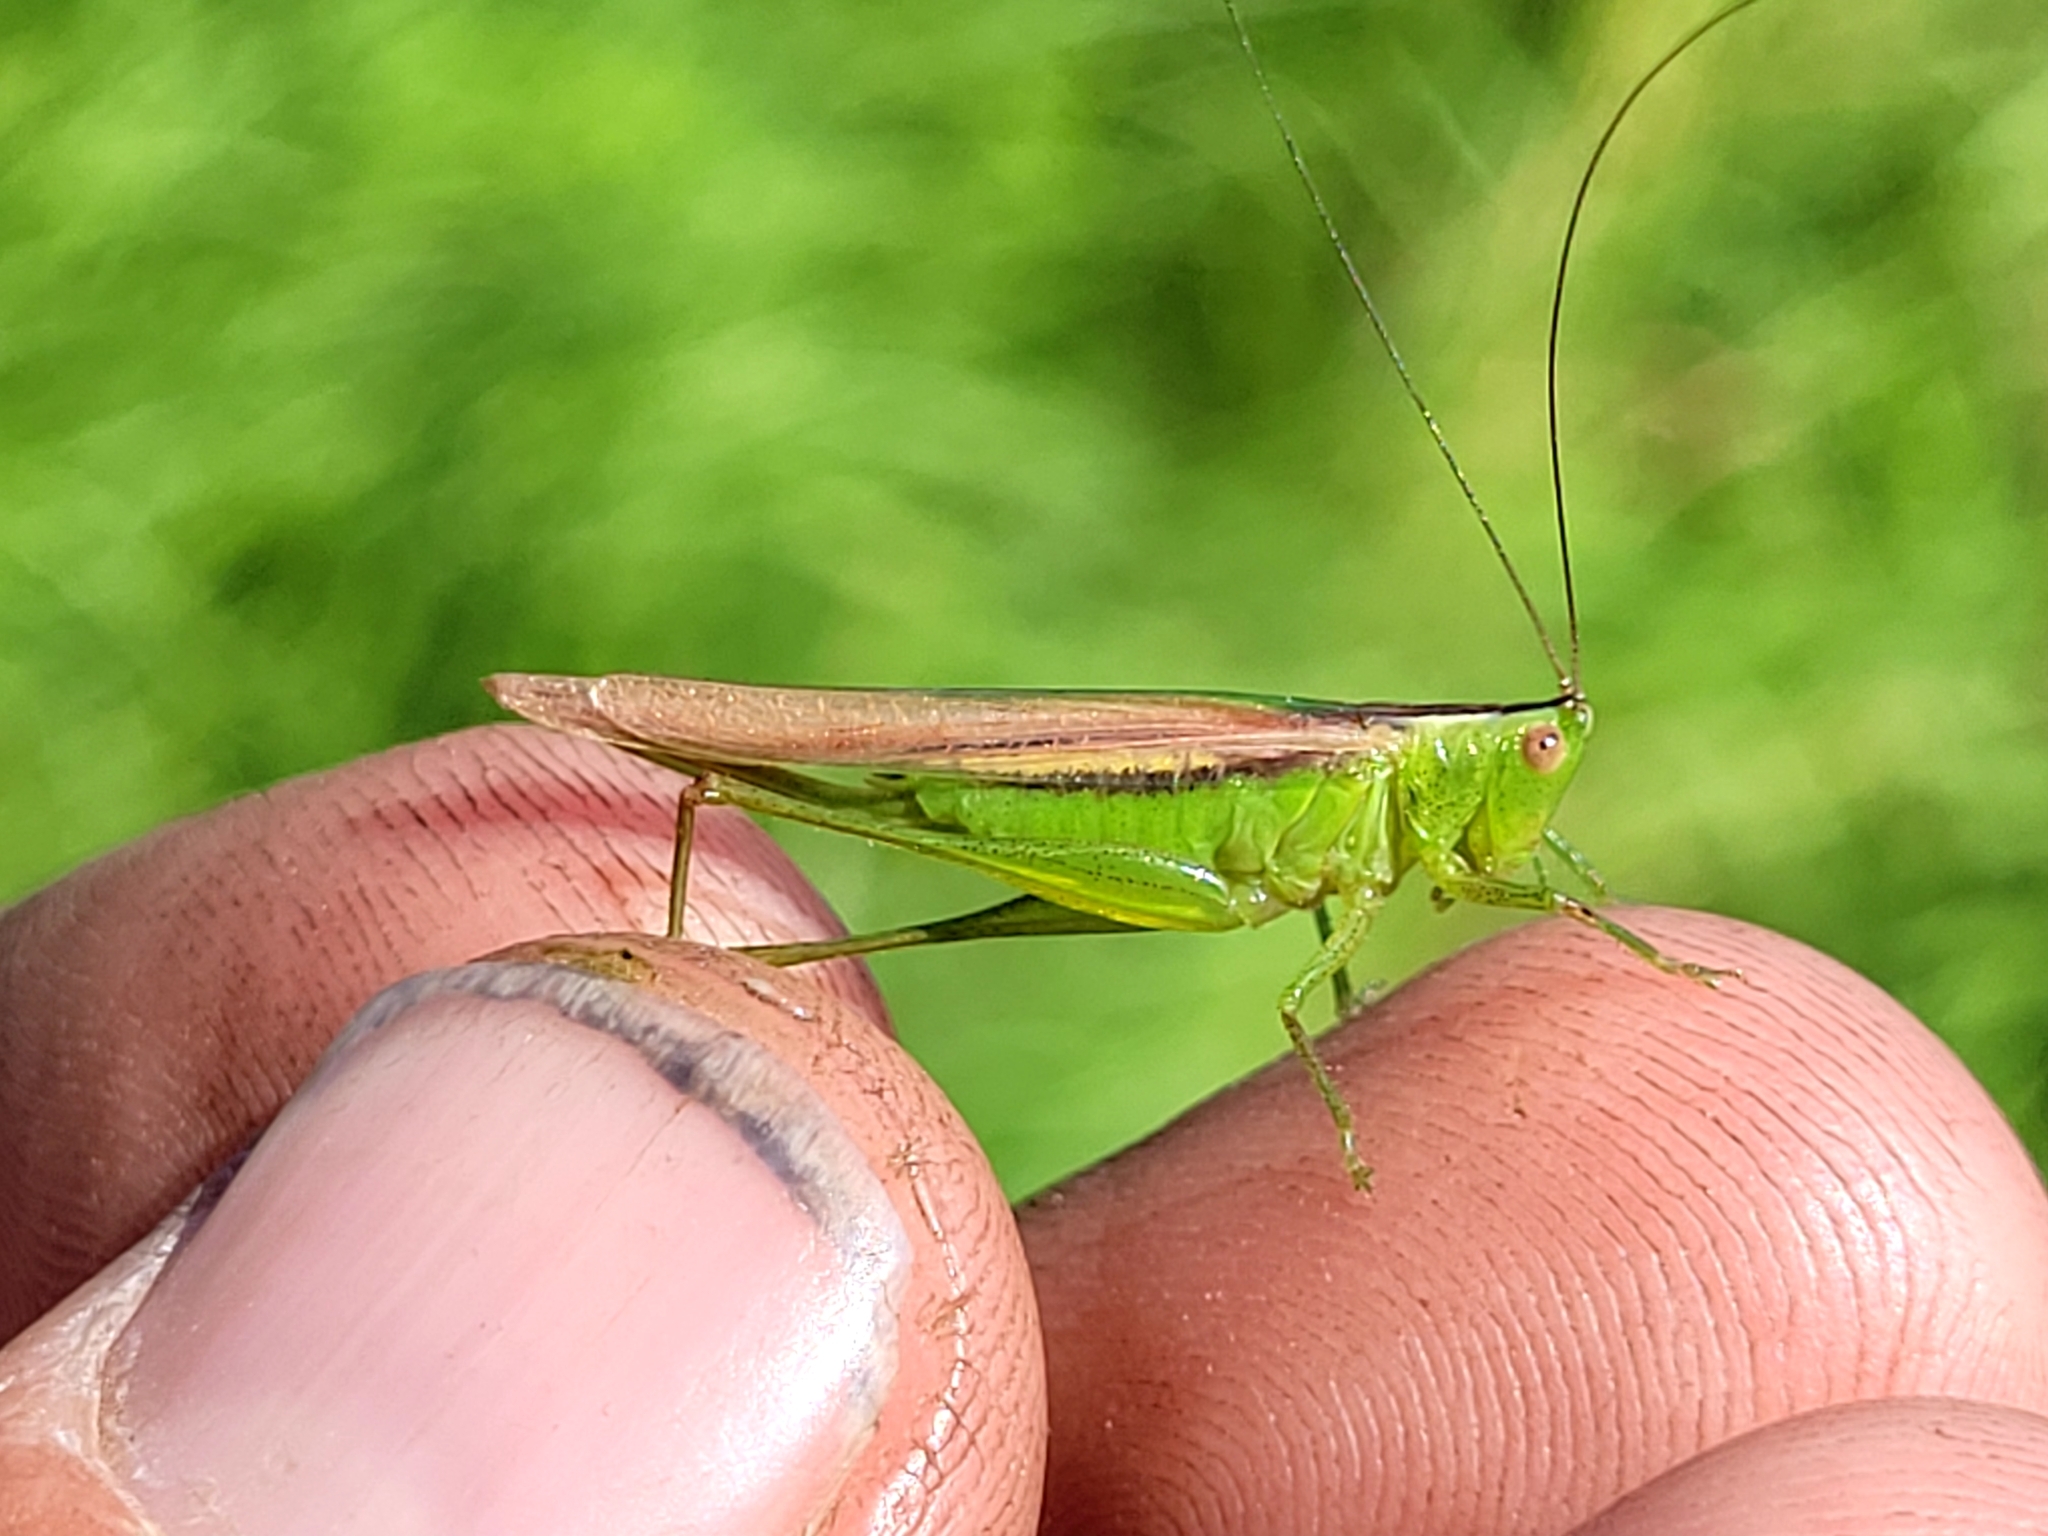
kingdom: Animalia
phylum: Arthropoda
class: Insecta
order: Orthoptera
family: Tettigoniidae
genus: Conocephalus
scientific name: Conocephalus fasciatus
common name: Slender meadow katydid
